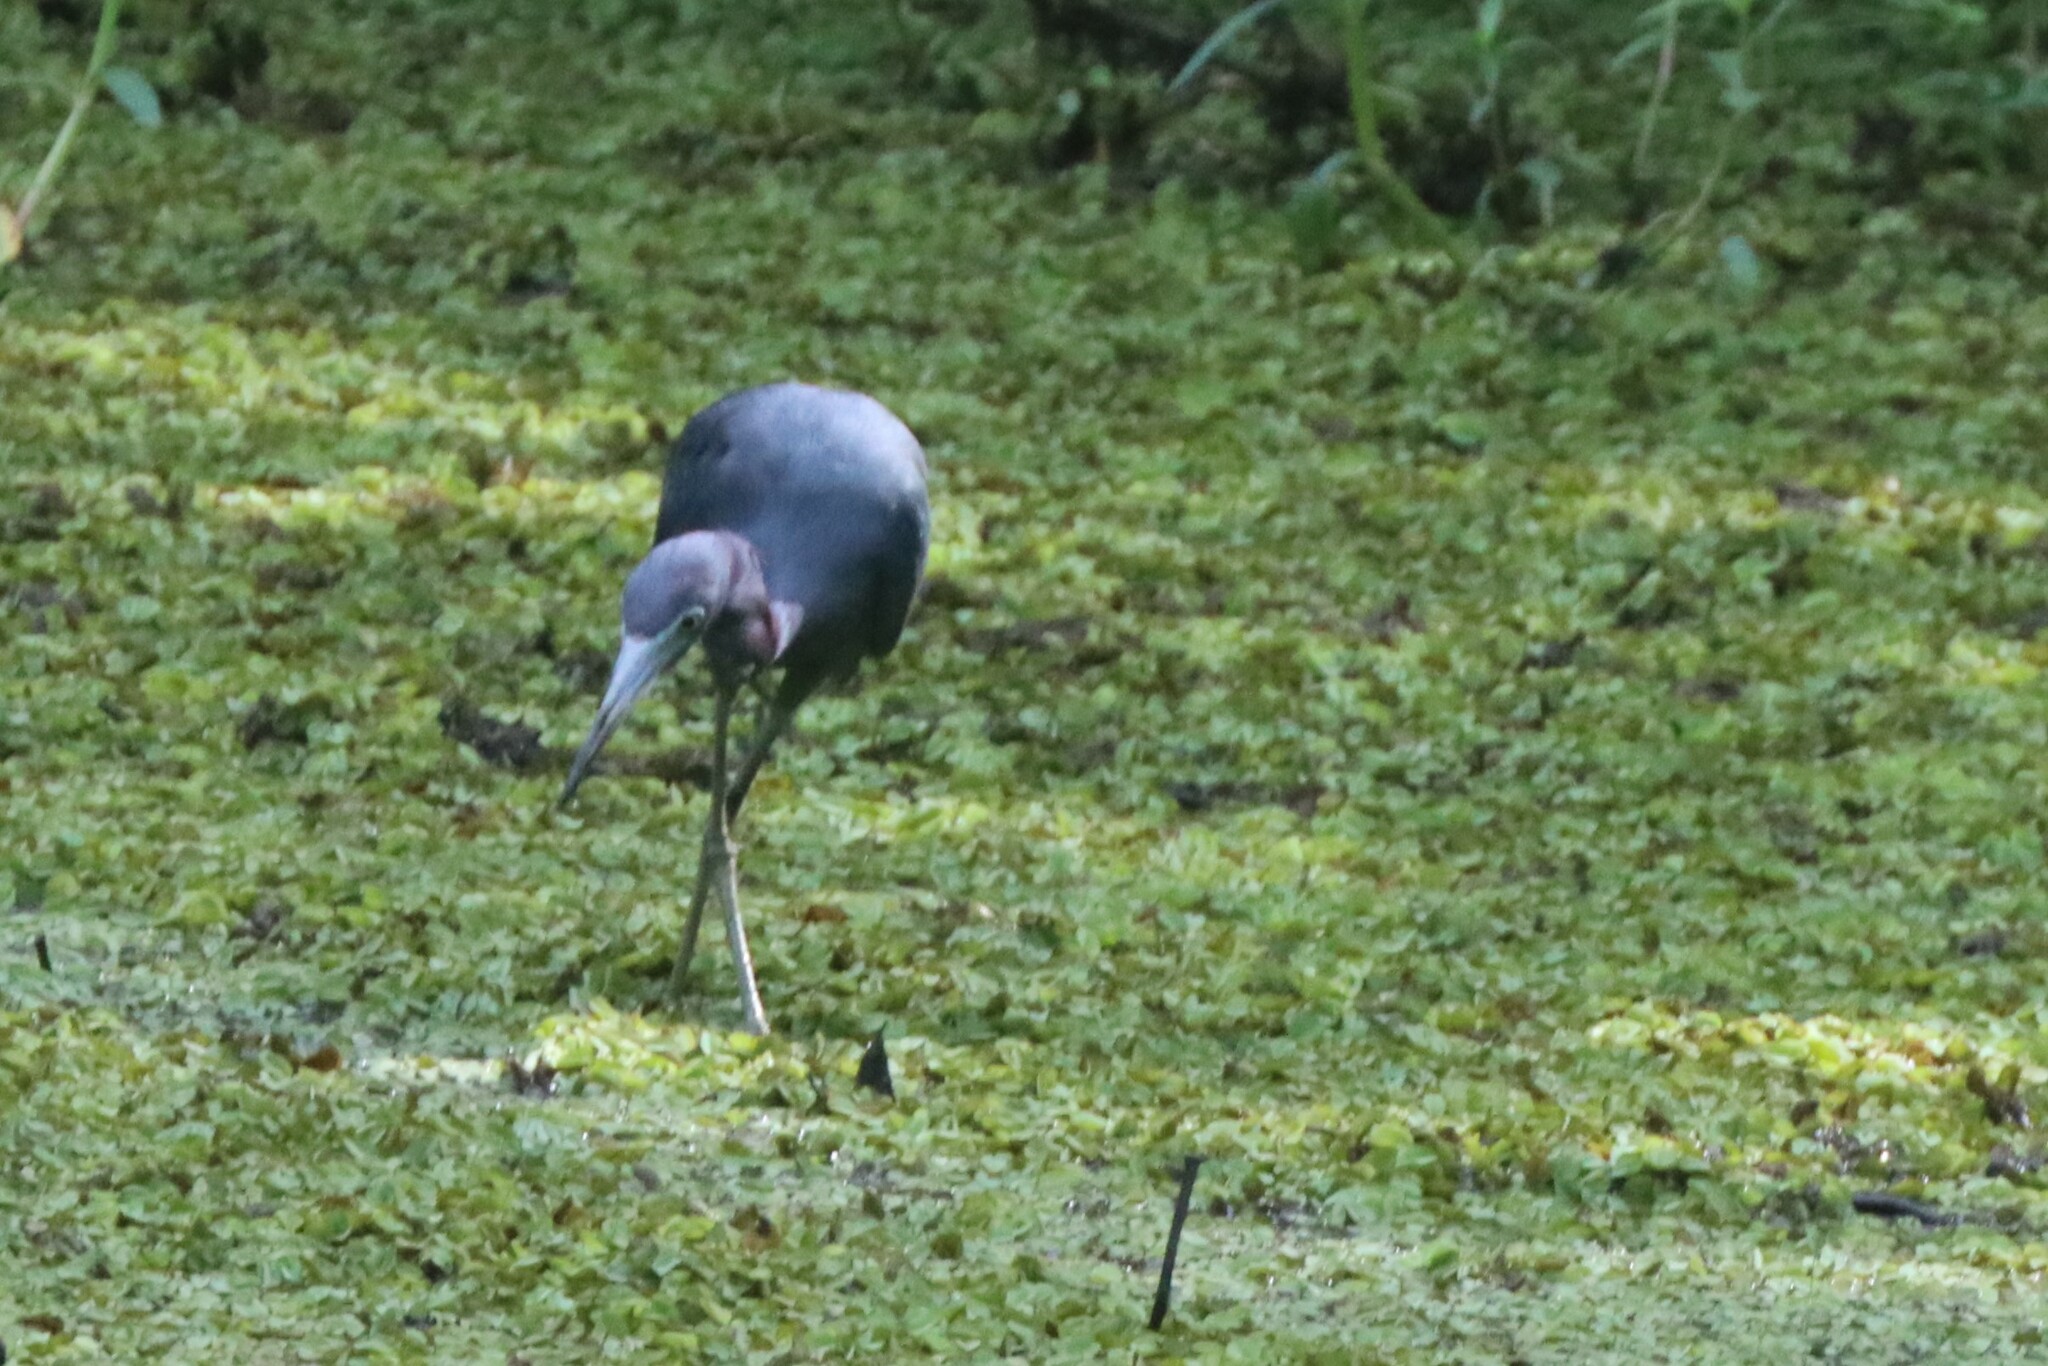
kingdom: Animalia
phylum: Chordata
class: Aves
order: Pelecaniformes
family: Ardeidae
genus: Egretta
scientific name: Egretta caerulea
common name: Little blue heron
